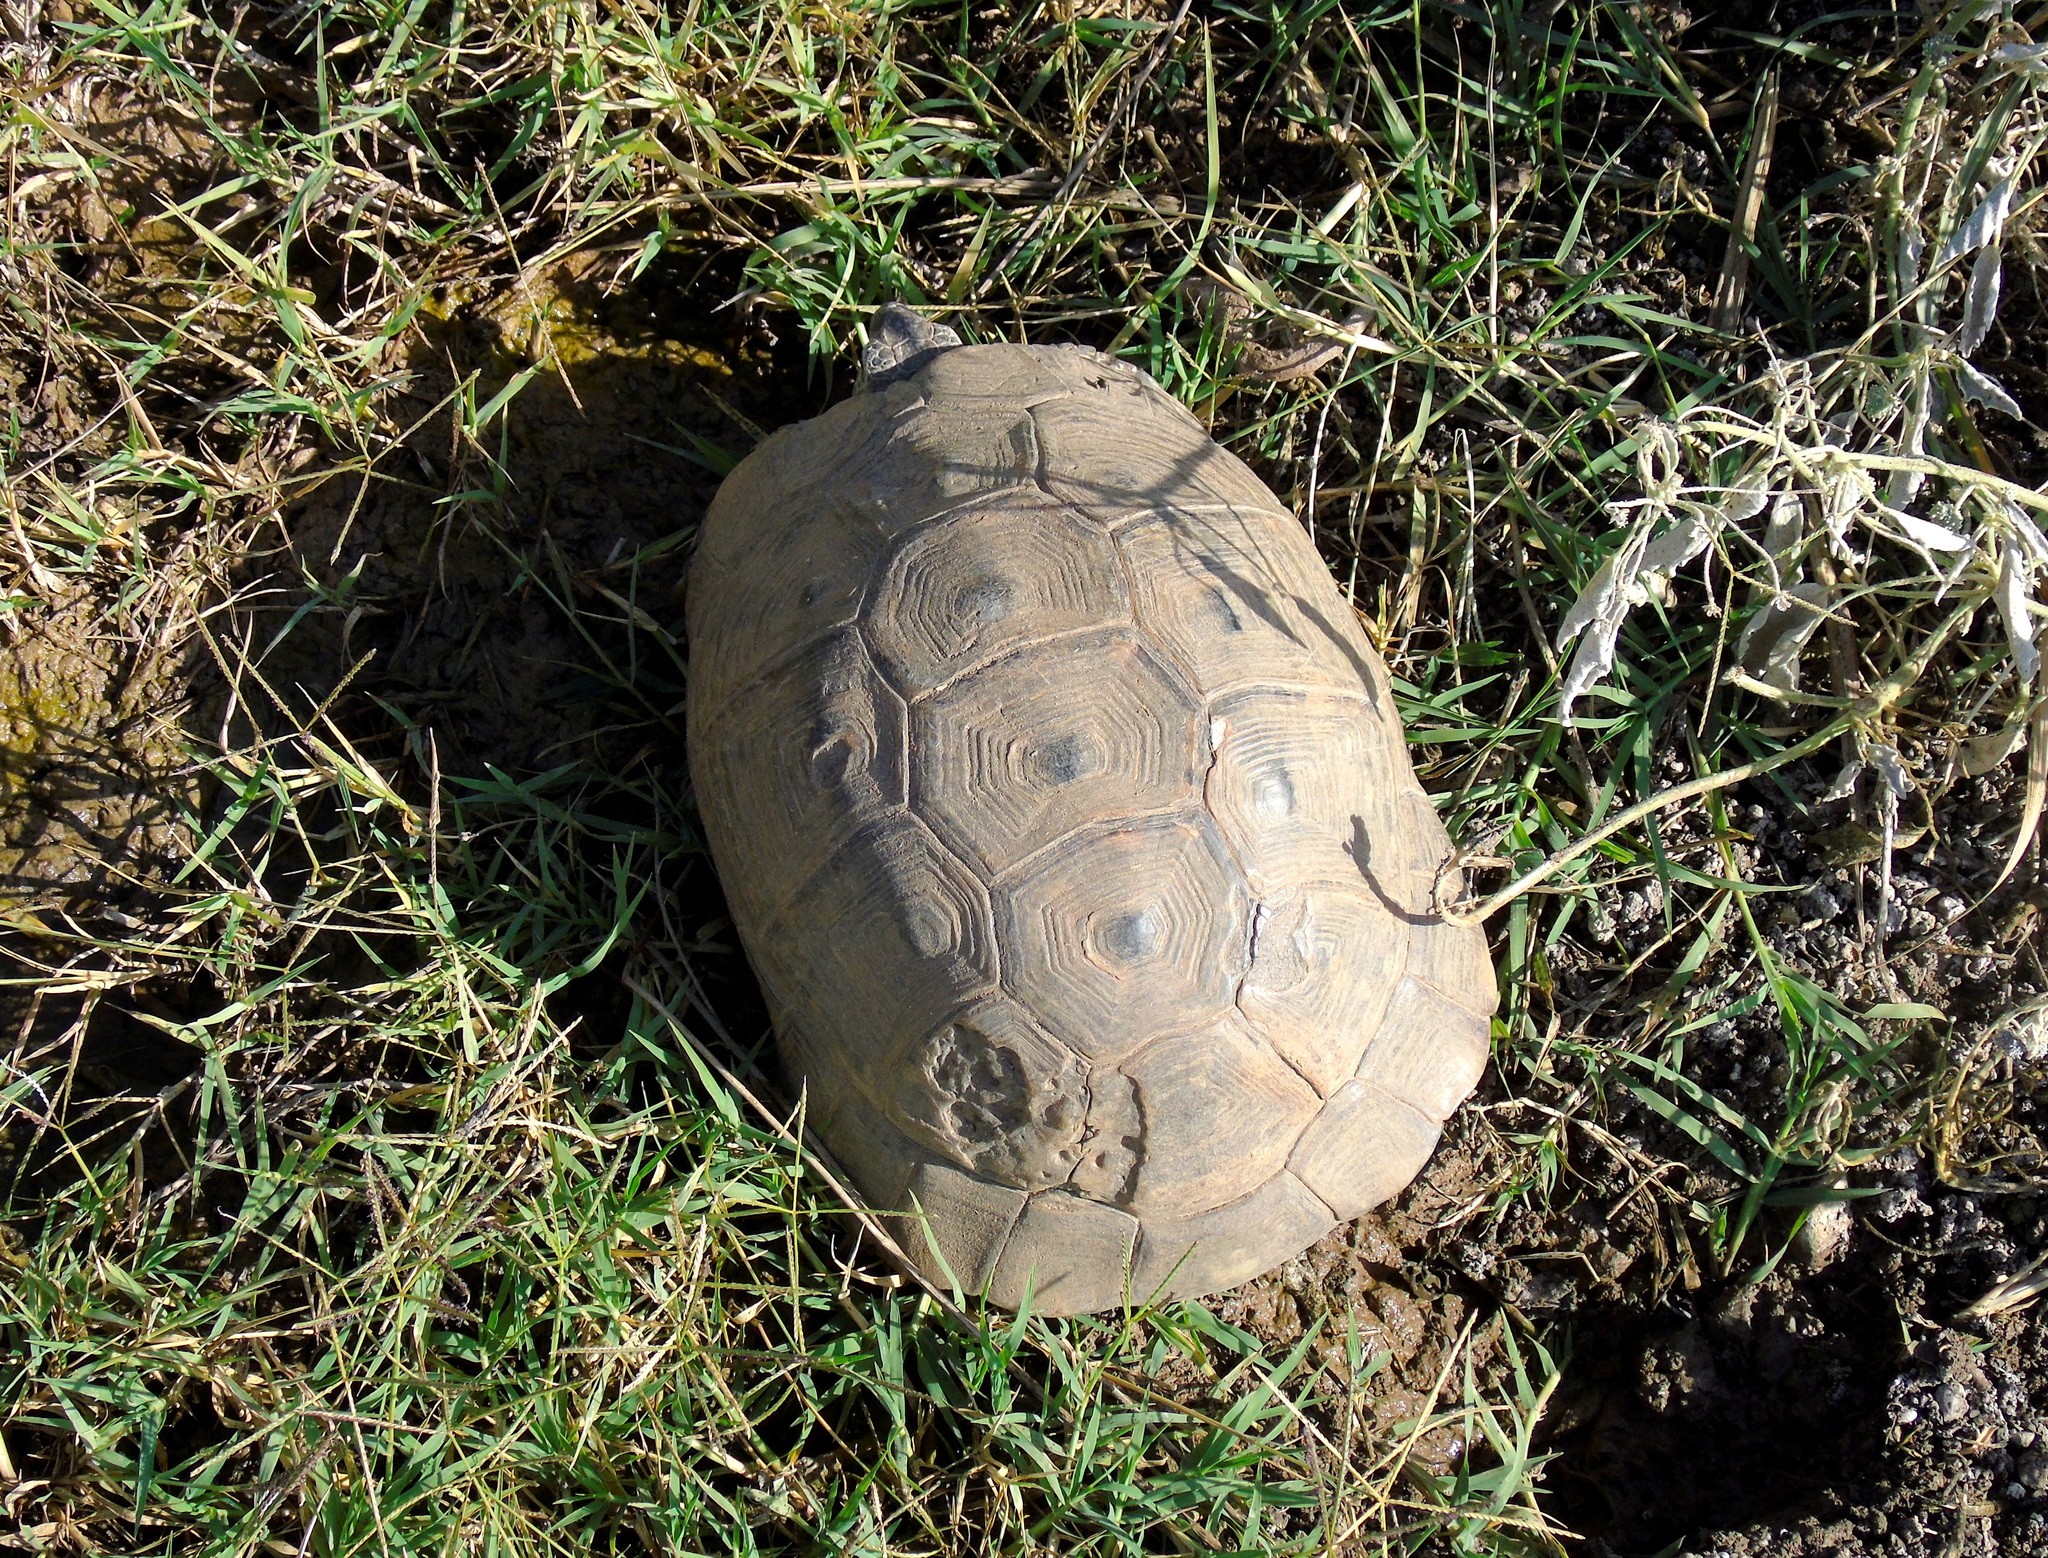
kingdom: Animalia
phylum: Chordata
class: Testudines
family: Testudinidae
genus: Testudo
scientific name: Testudo graeca
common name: Common tortoise
